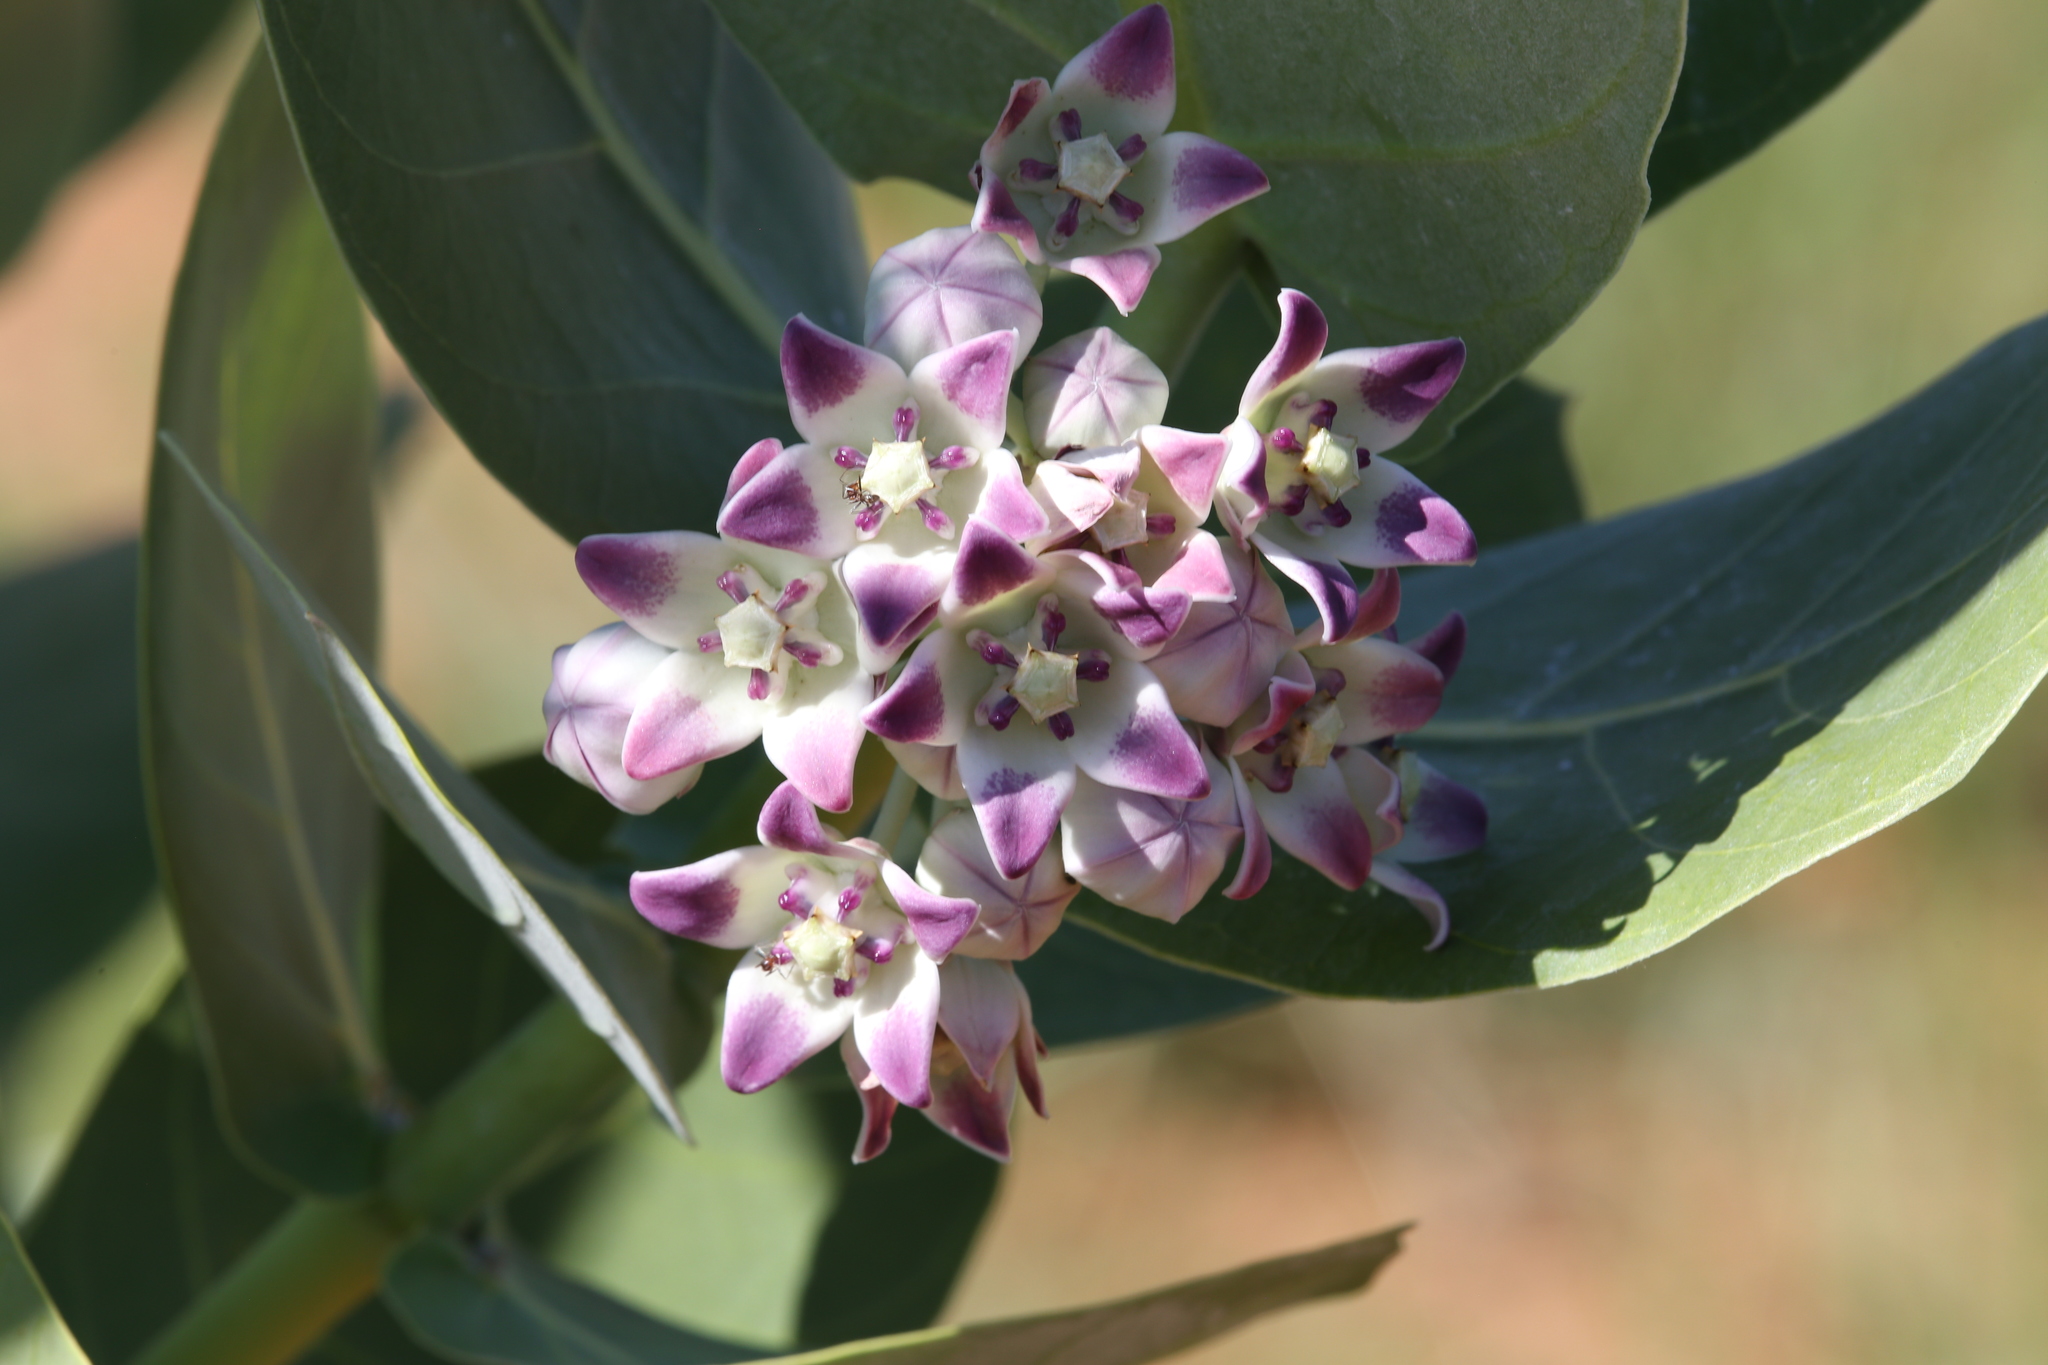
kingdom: Plantae
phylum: Tracheophyta
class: Magnoliopsida
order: Gentianales
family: Apocynaceae
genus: Calotropis
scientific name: Calotropis procera
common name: Roostertree
